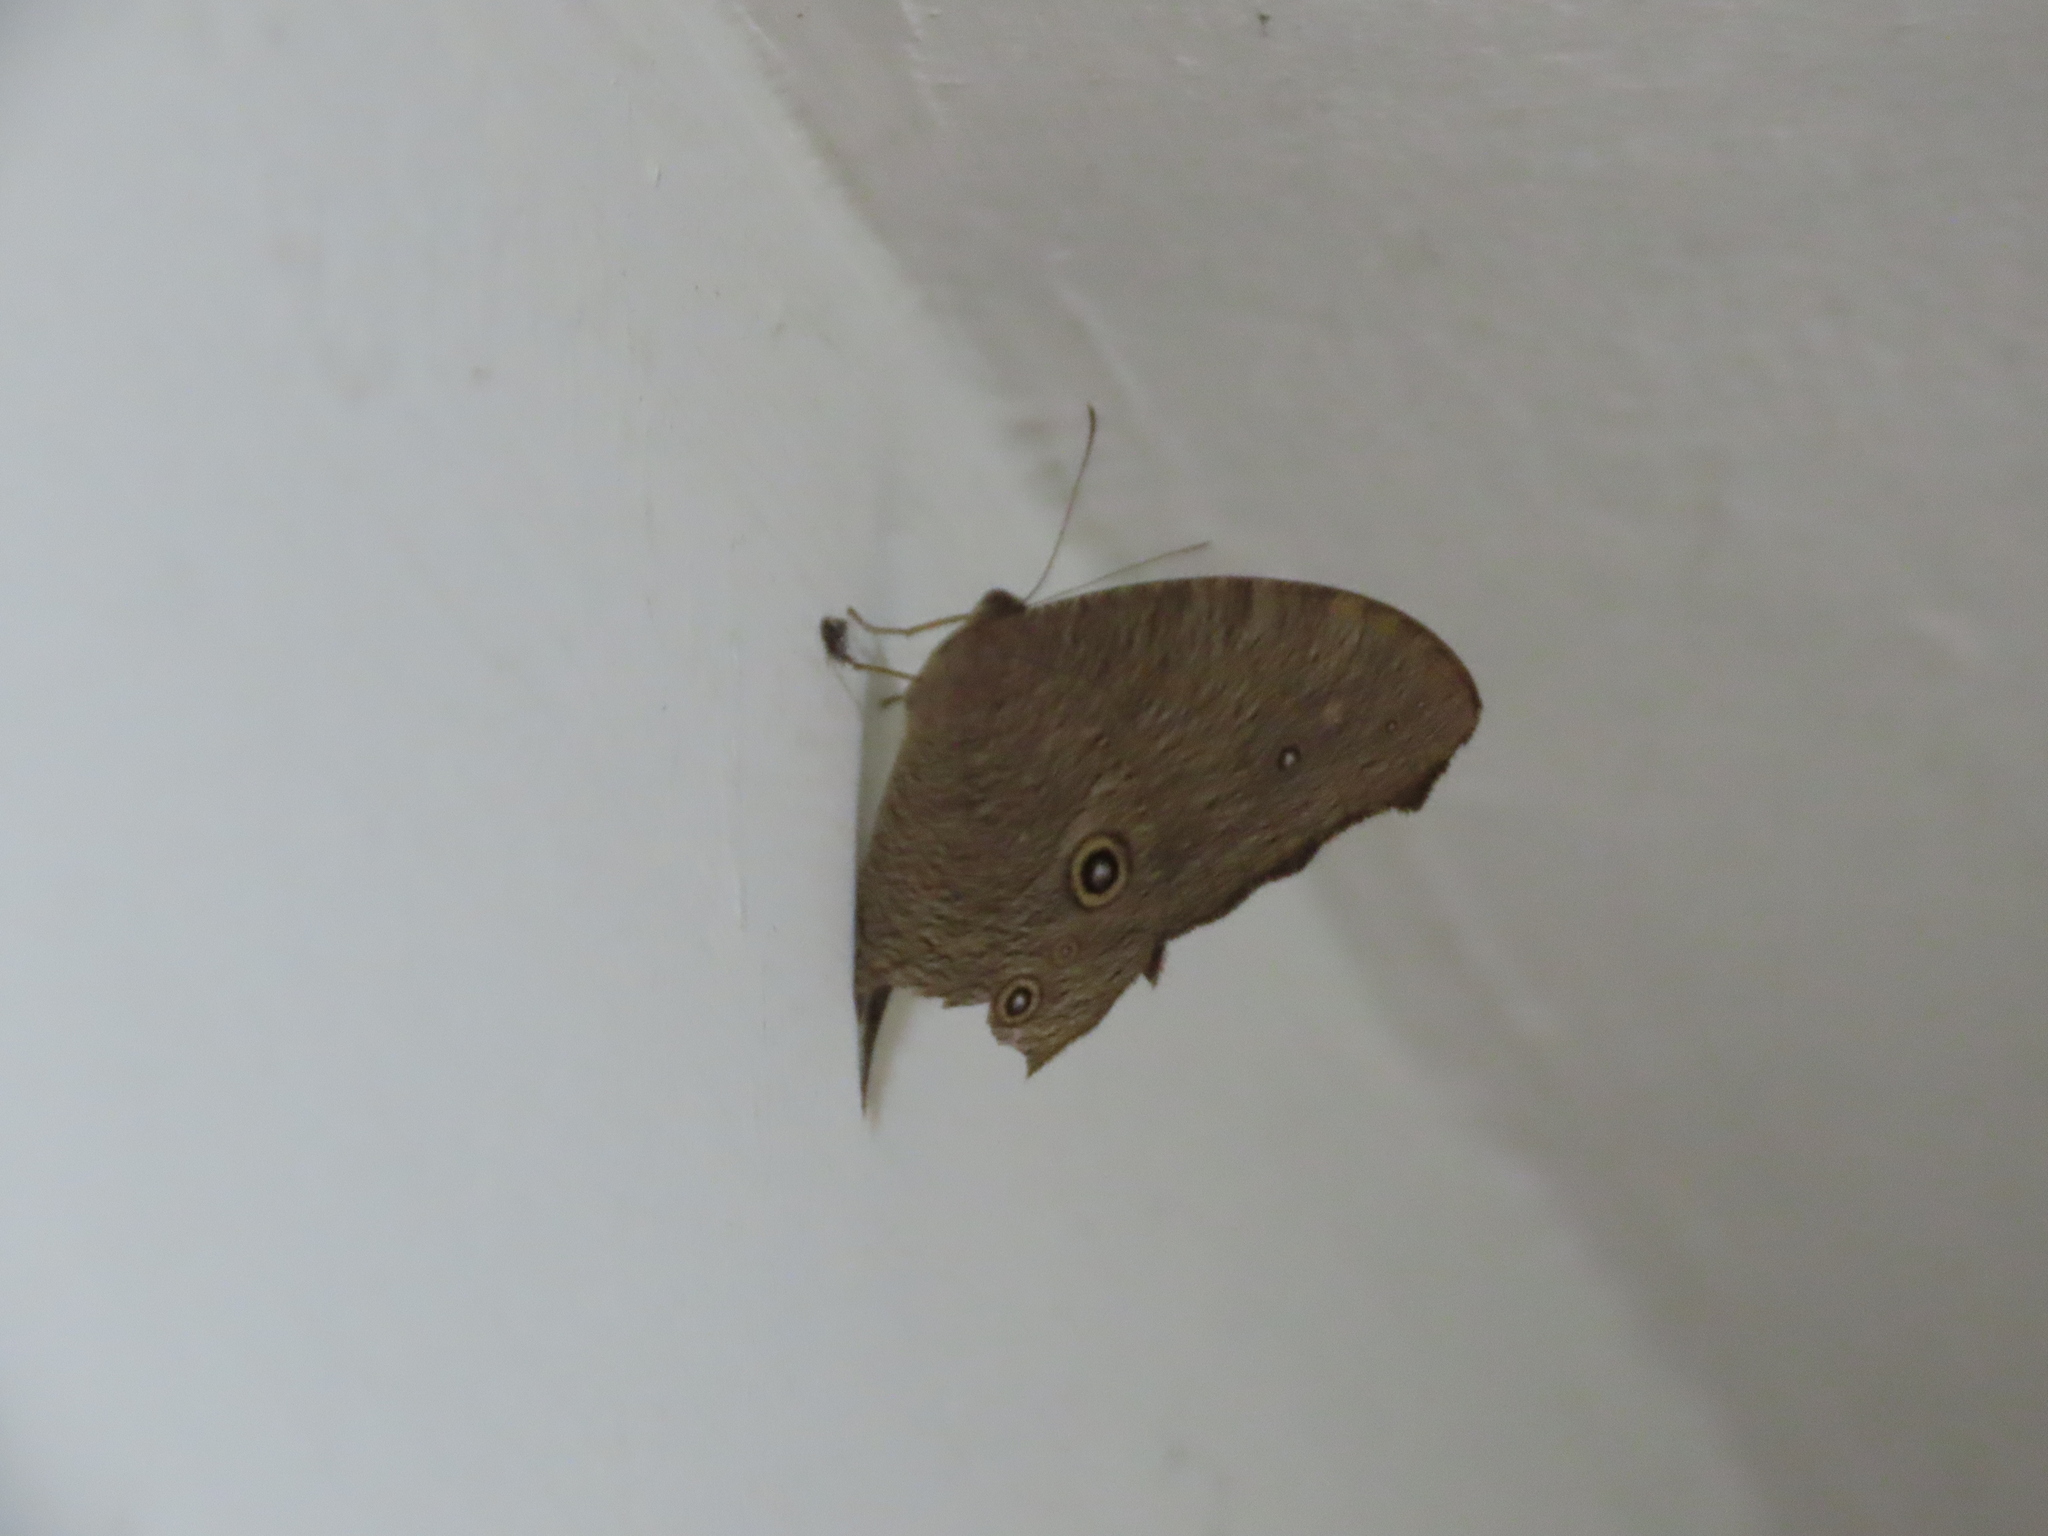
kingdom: Animalia
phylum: Arthropoda
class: Insecta
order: Lepidoptera
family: Nymphalidae
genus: Melanitis
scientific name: Melanitis leda
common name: Twilight brown
